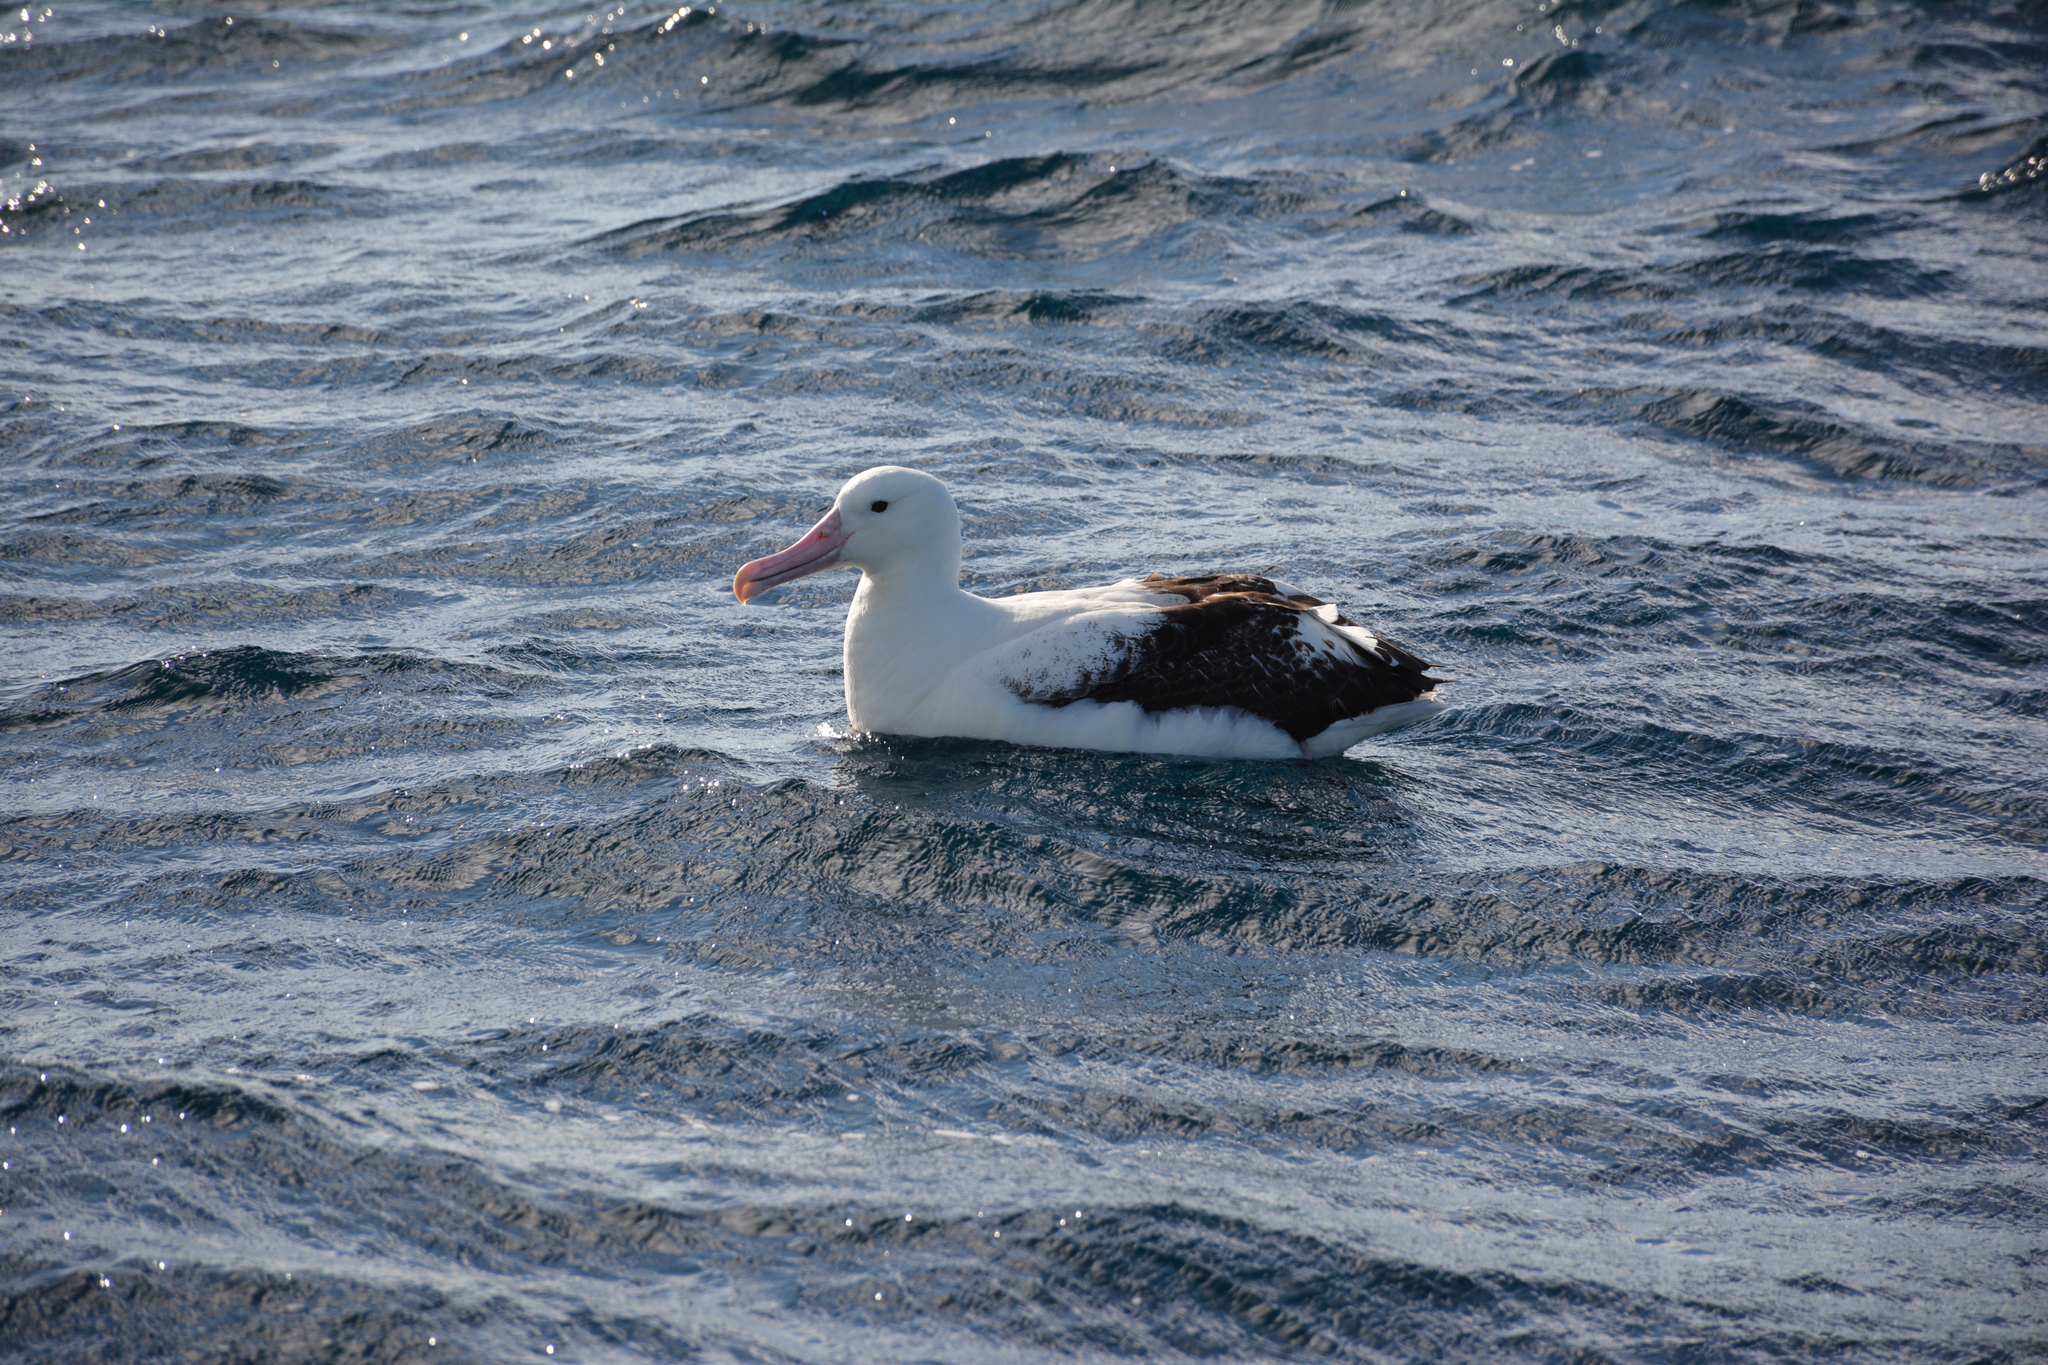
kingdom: Animalia
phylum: Chordata
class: Aves
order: Procellariiformes
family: Diomedeidae
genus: Diomedea
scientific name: Diomedea epomophora
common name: Southern royal albatross
